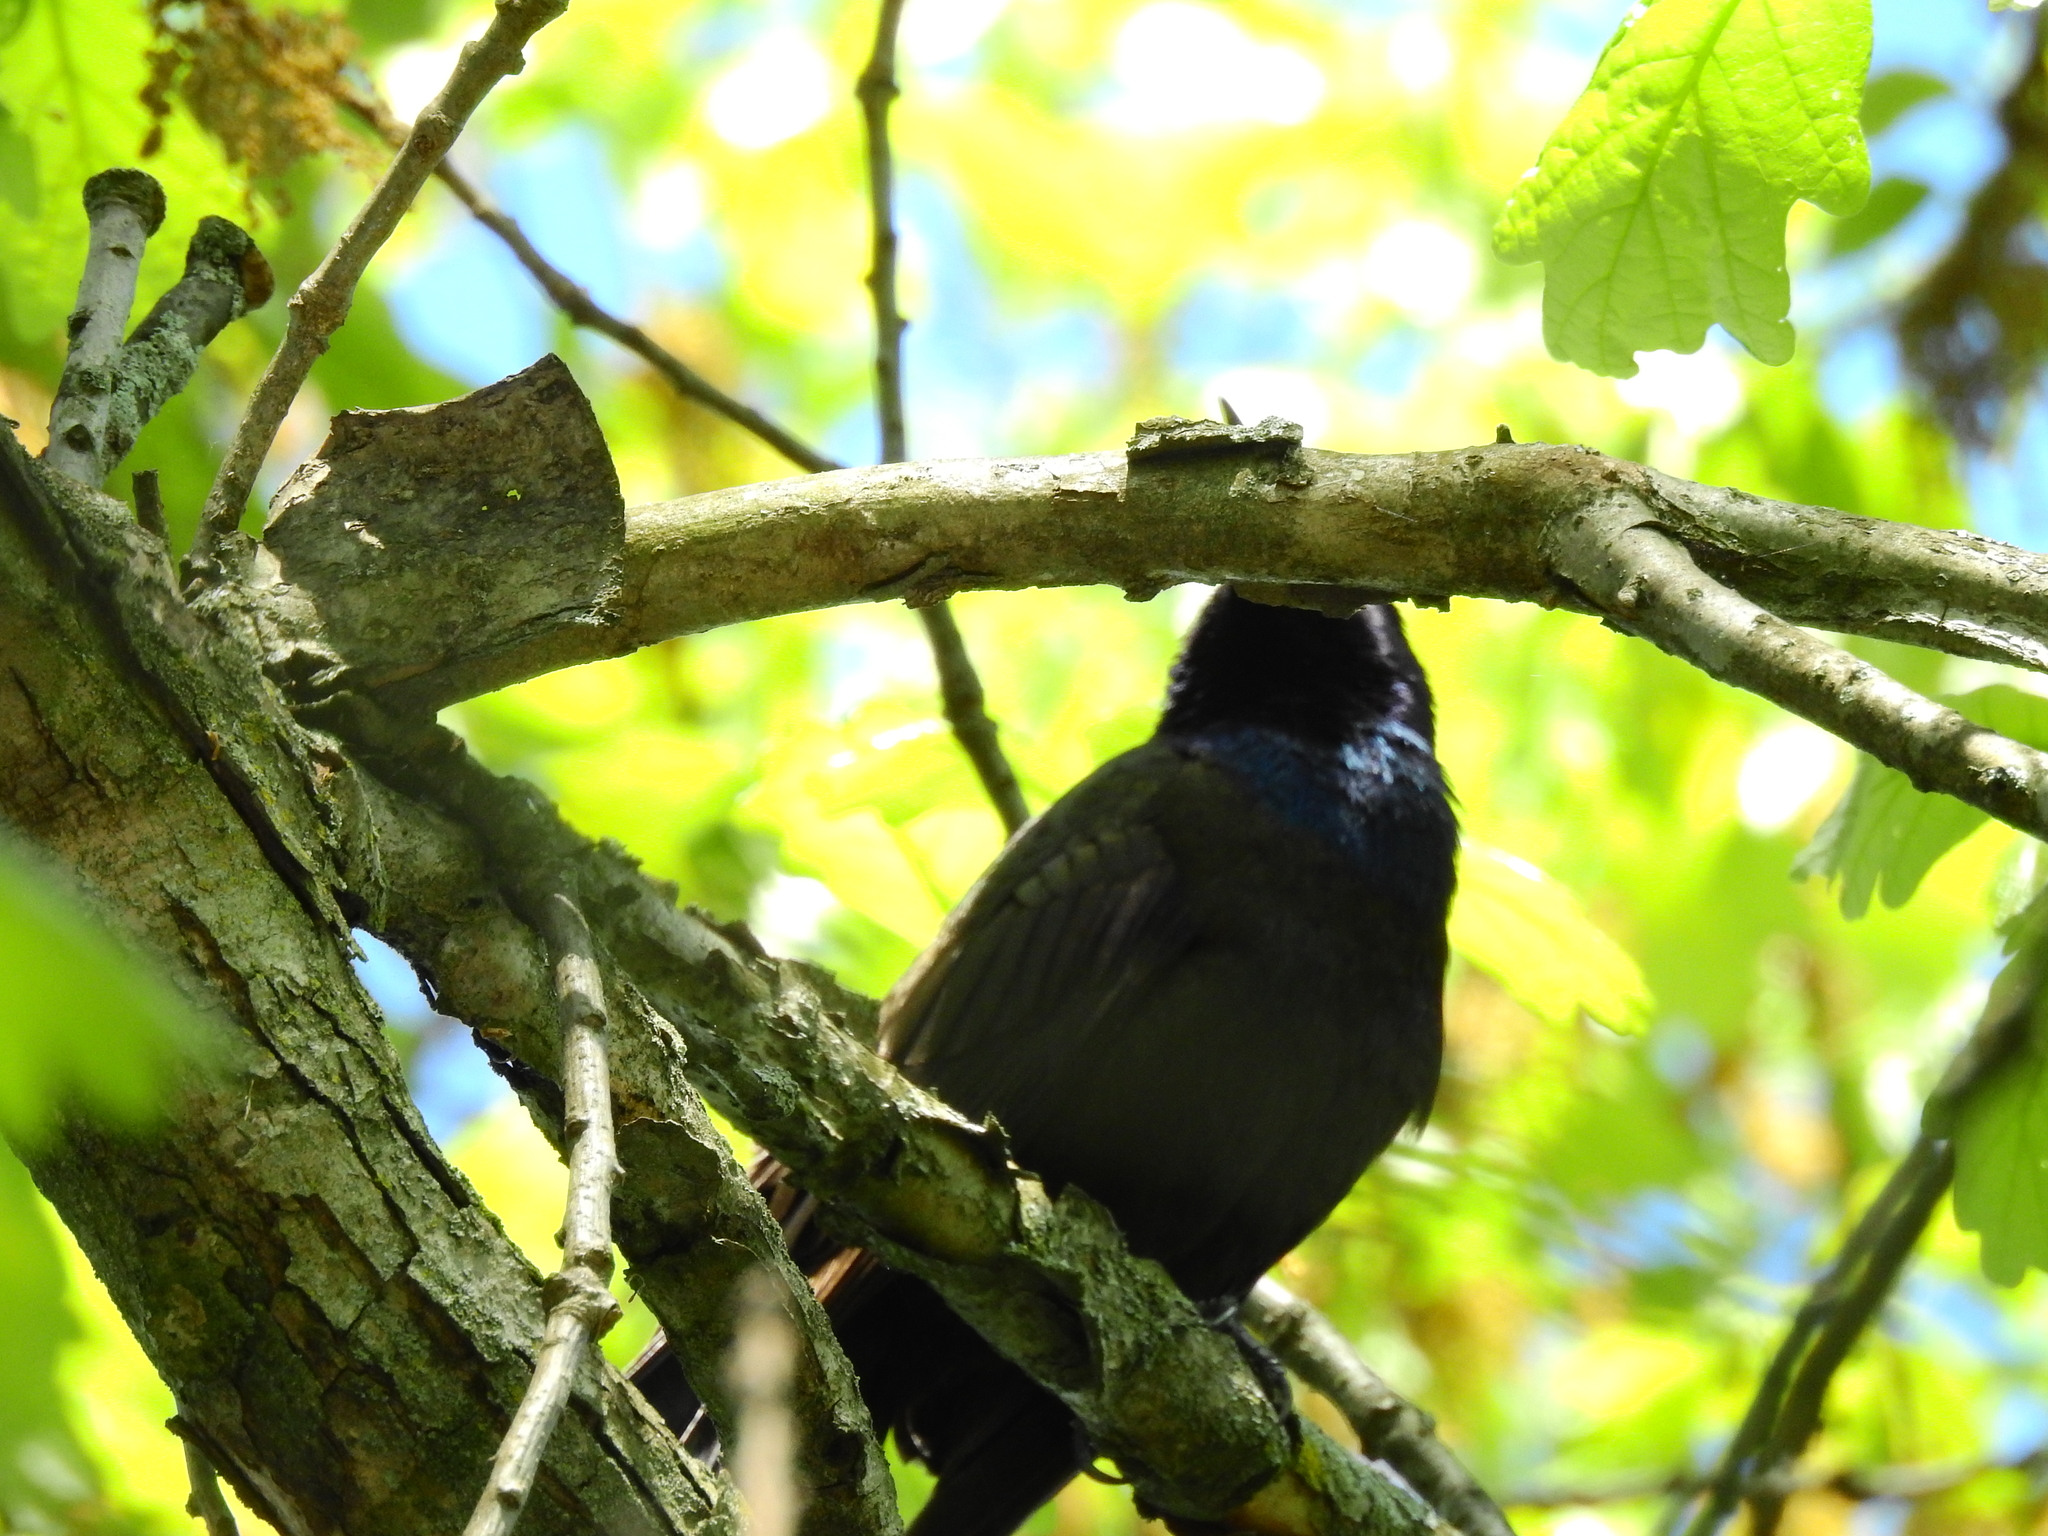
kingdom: Animalia
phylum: Chordata
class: Aves
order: Passeriformes
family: Icteridae
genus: Quiscalus
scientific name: Quiscalus quiscula
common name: Common grackle
